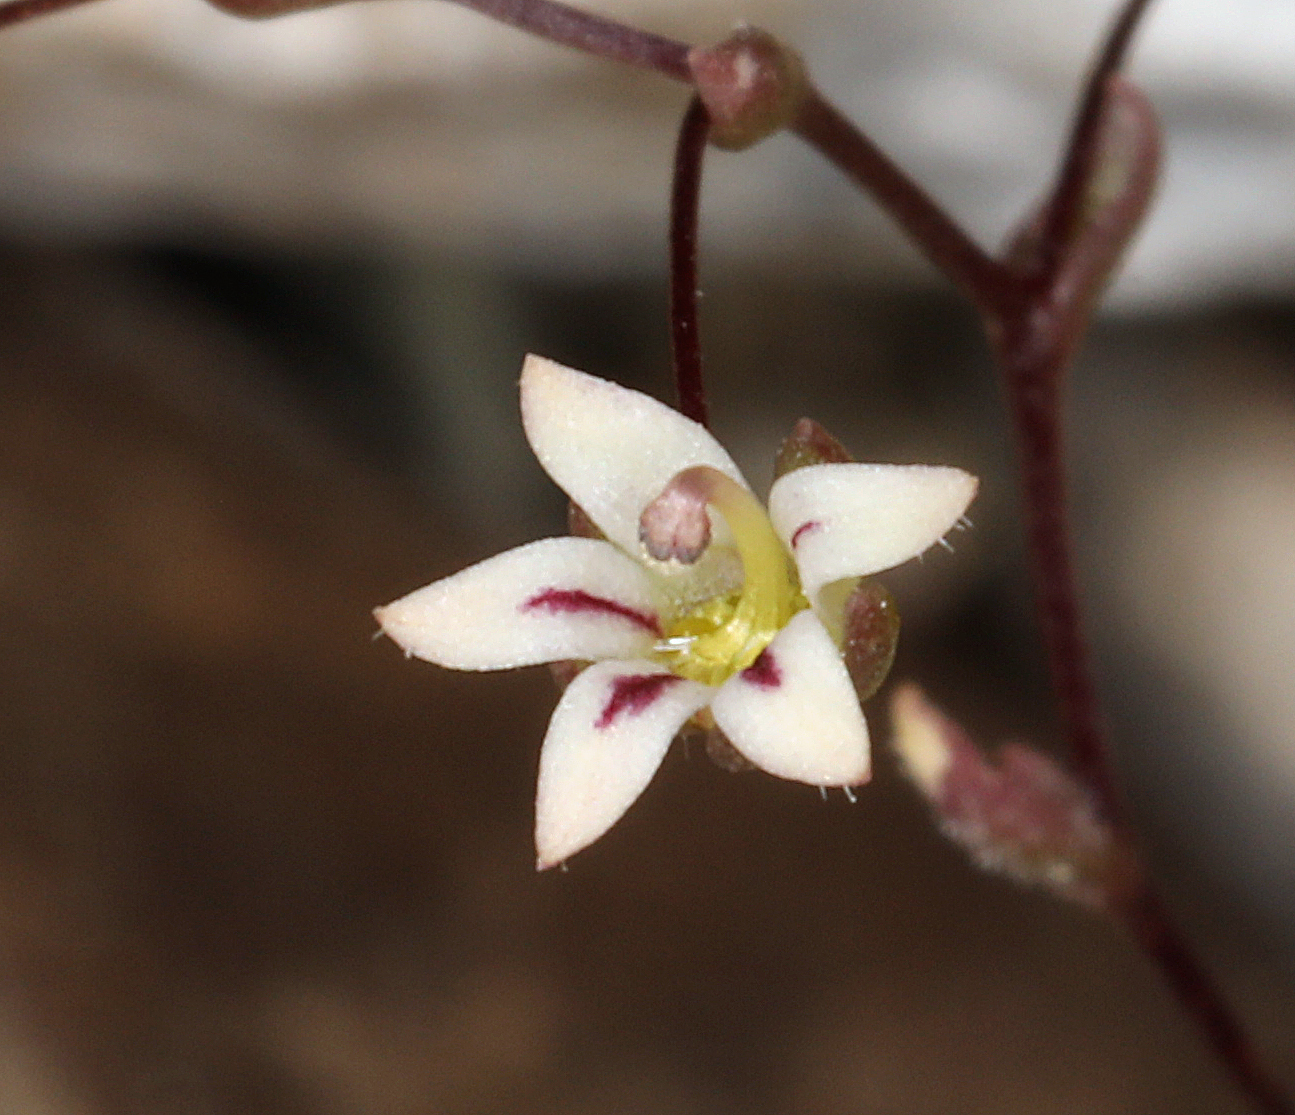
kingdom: Plantae
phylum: Tracheophyta
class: Magnoliopsida
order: Asterales
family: Campanulaceae
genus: Nemacladus
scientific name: Nemacladus inyoensis
